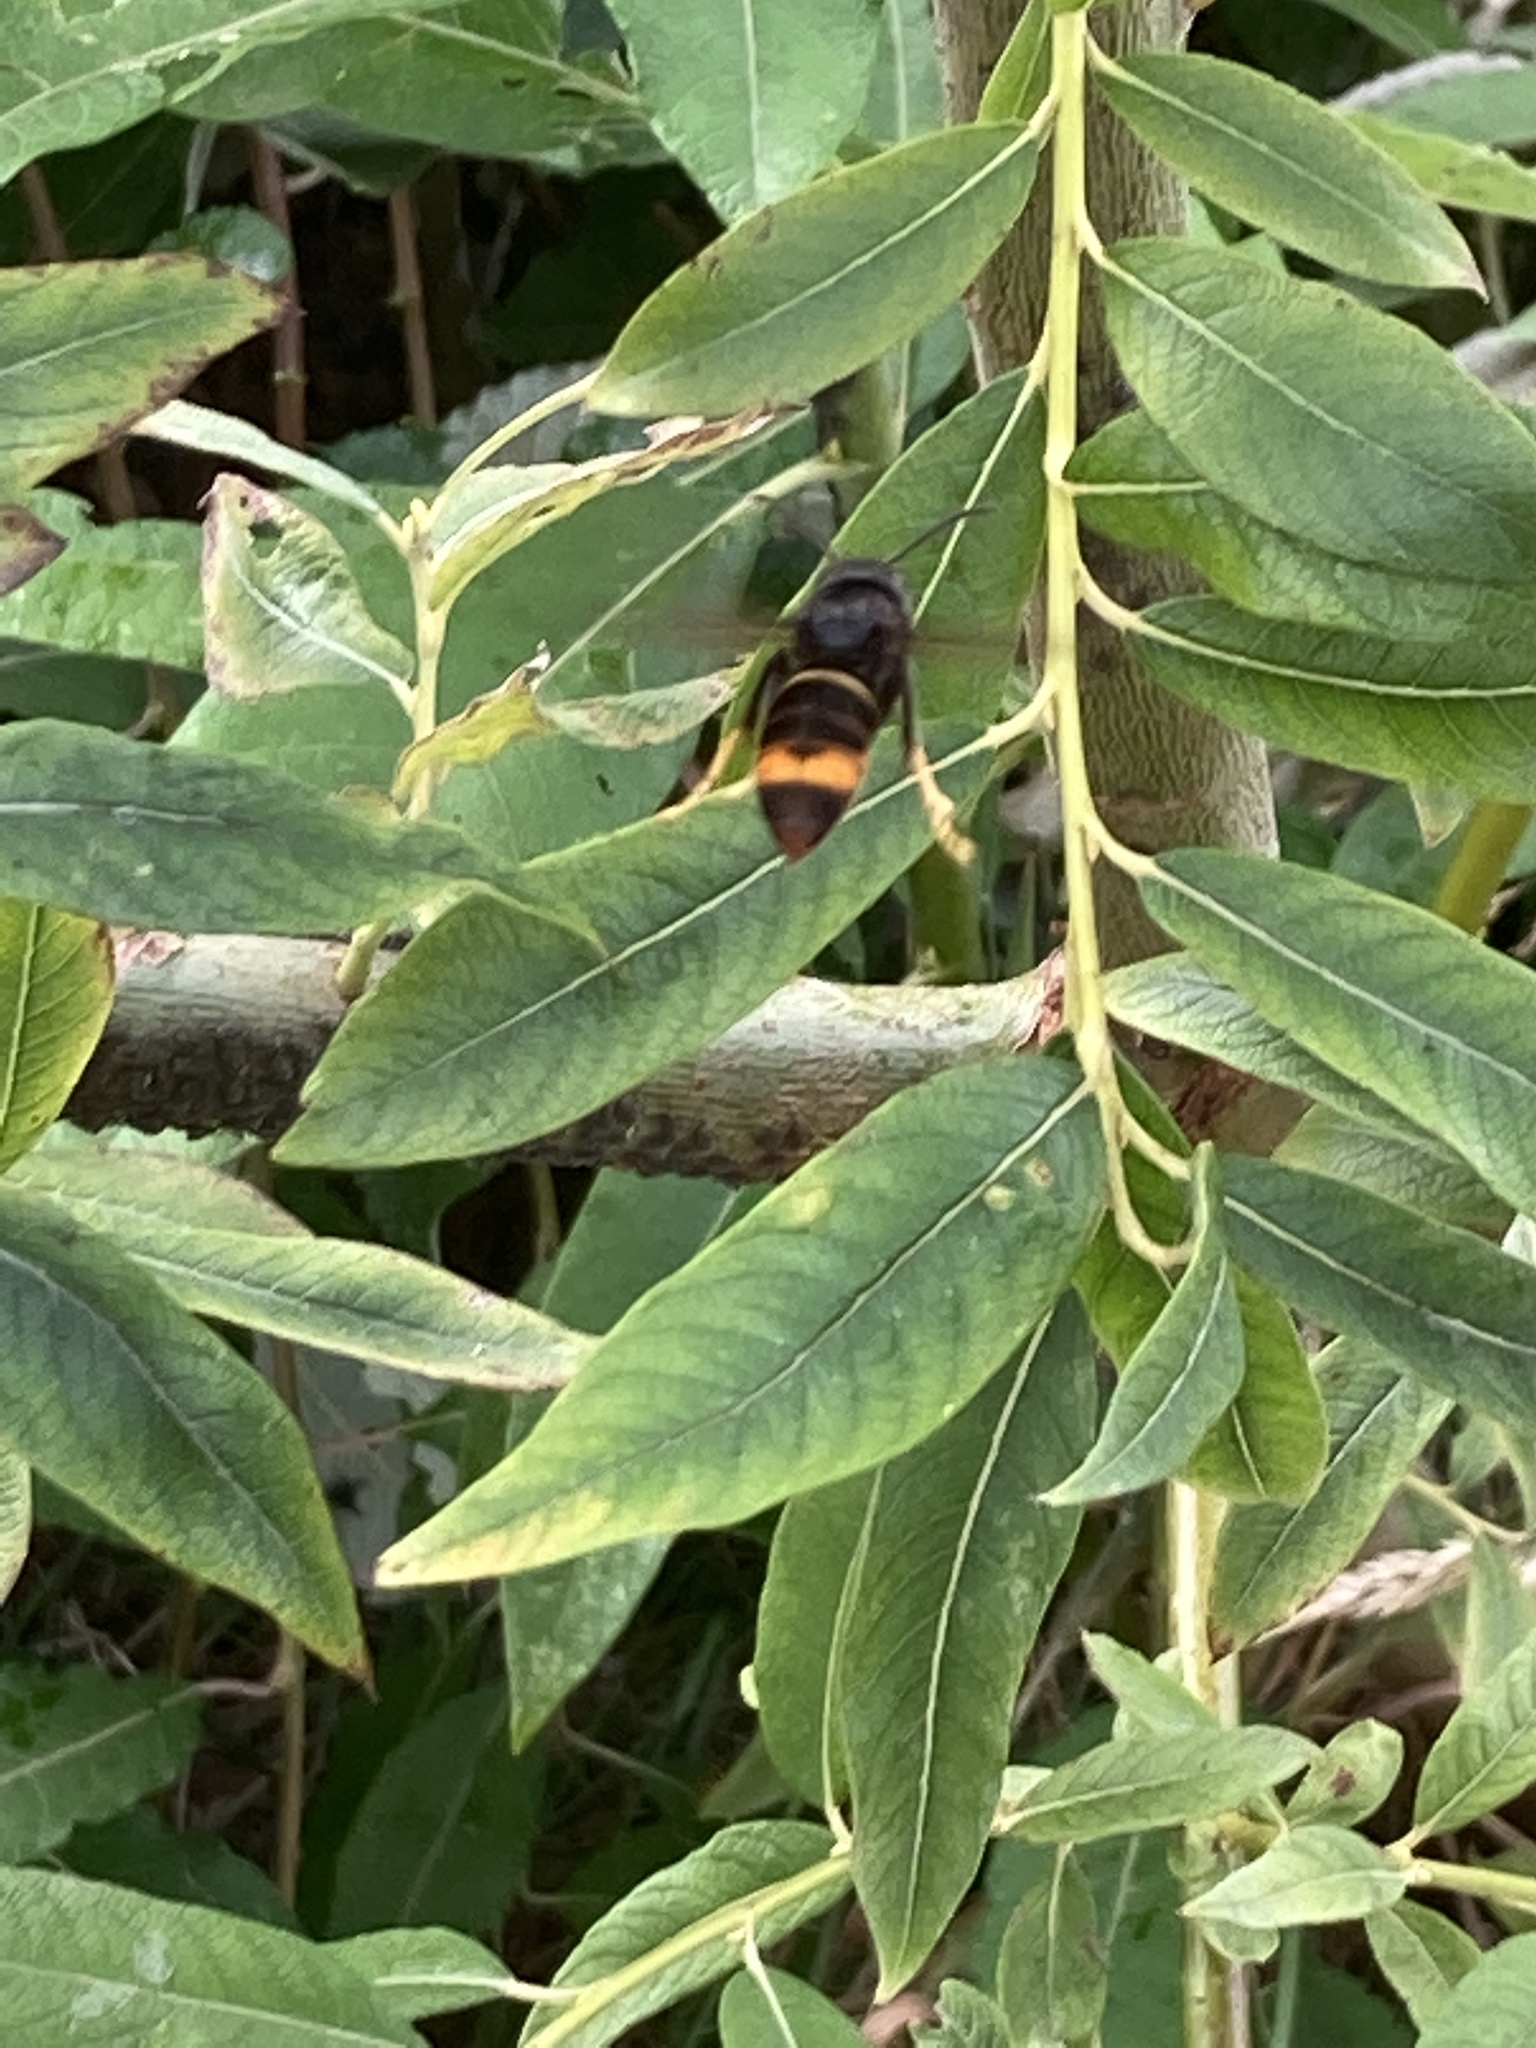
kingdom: Animalia
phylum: Arthropoda
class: Insecta
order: Hymenoptera
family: Vespidae
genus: Vespa
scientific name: Vespa velutina
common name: Asian hornet
